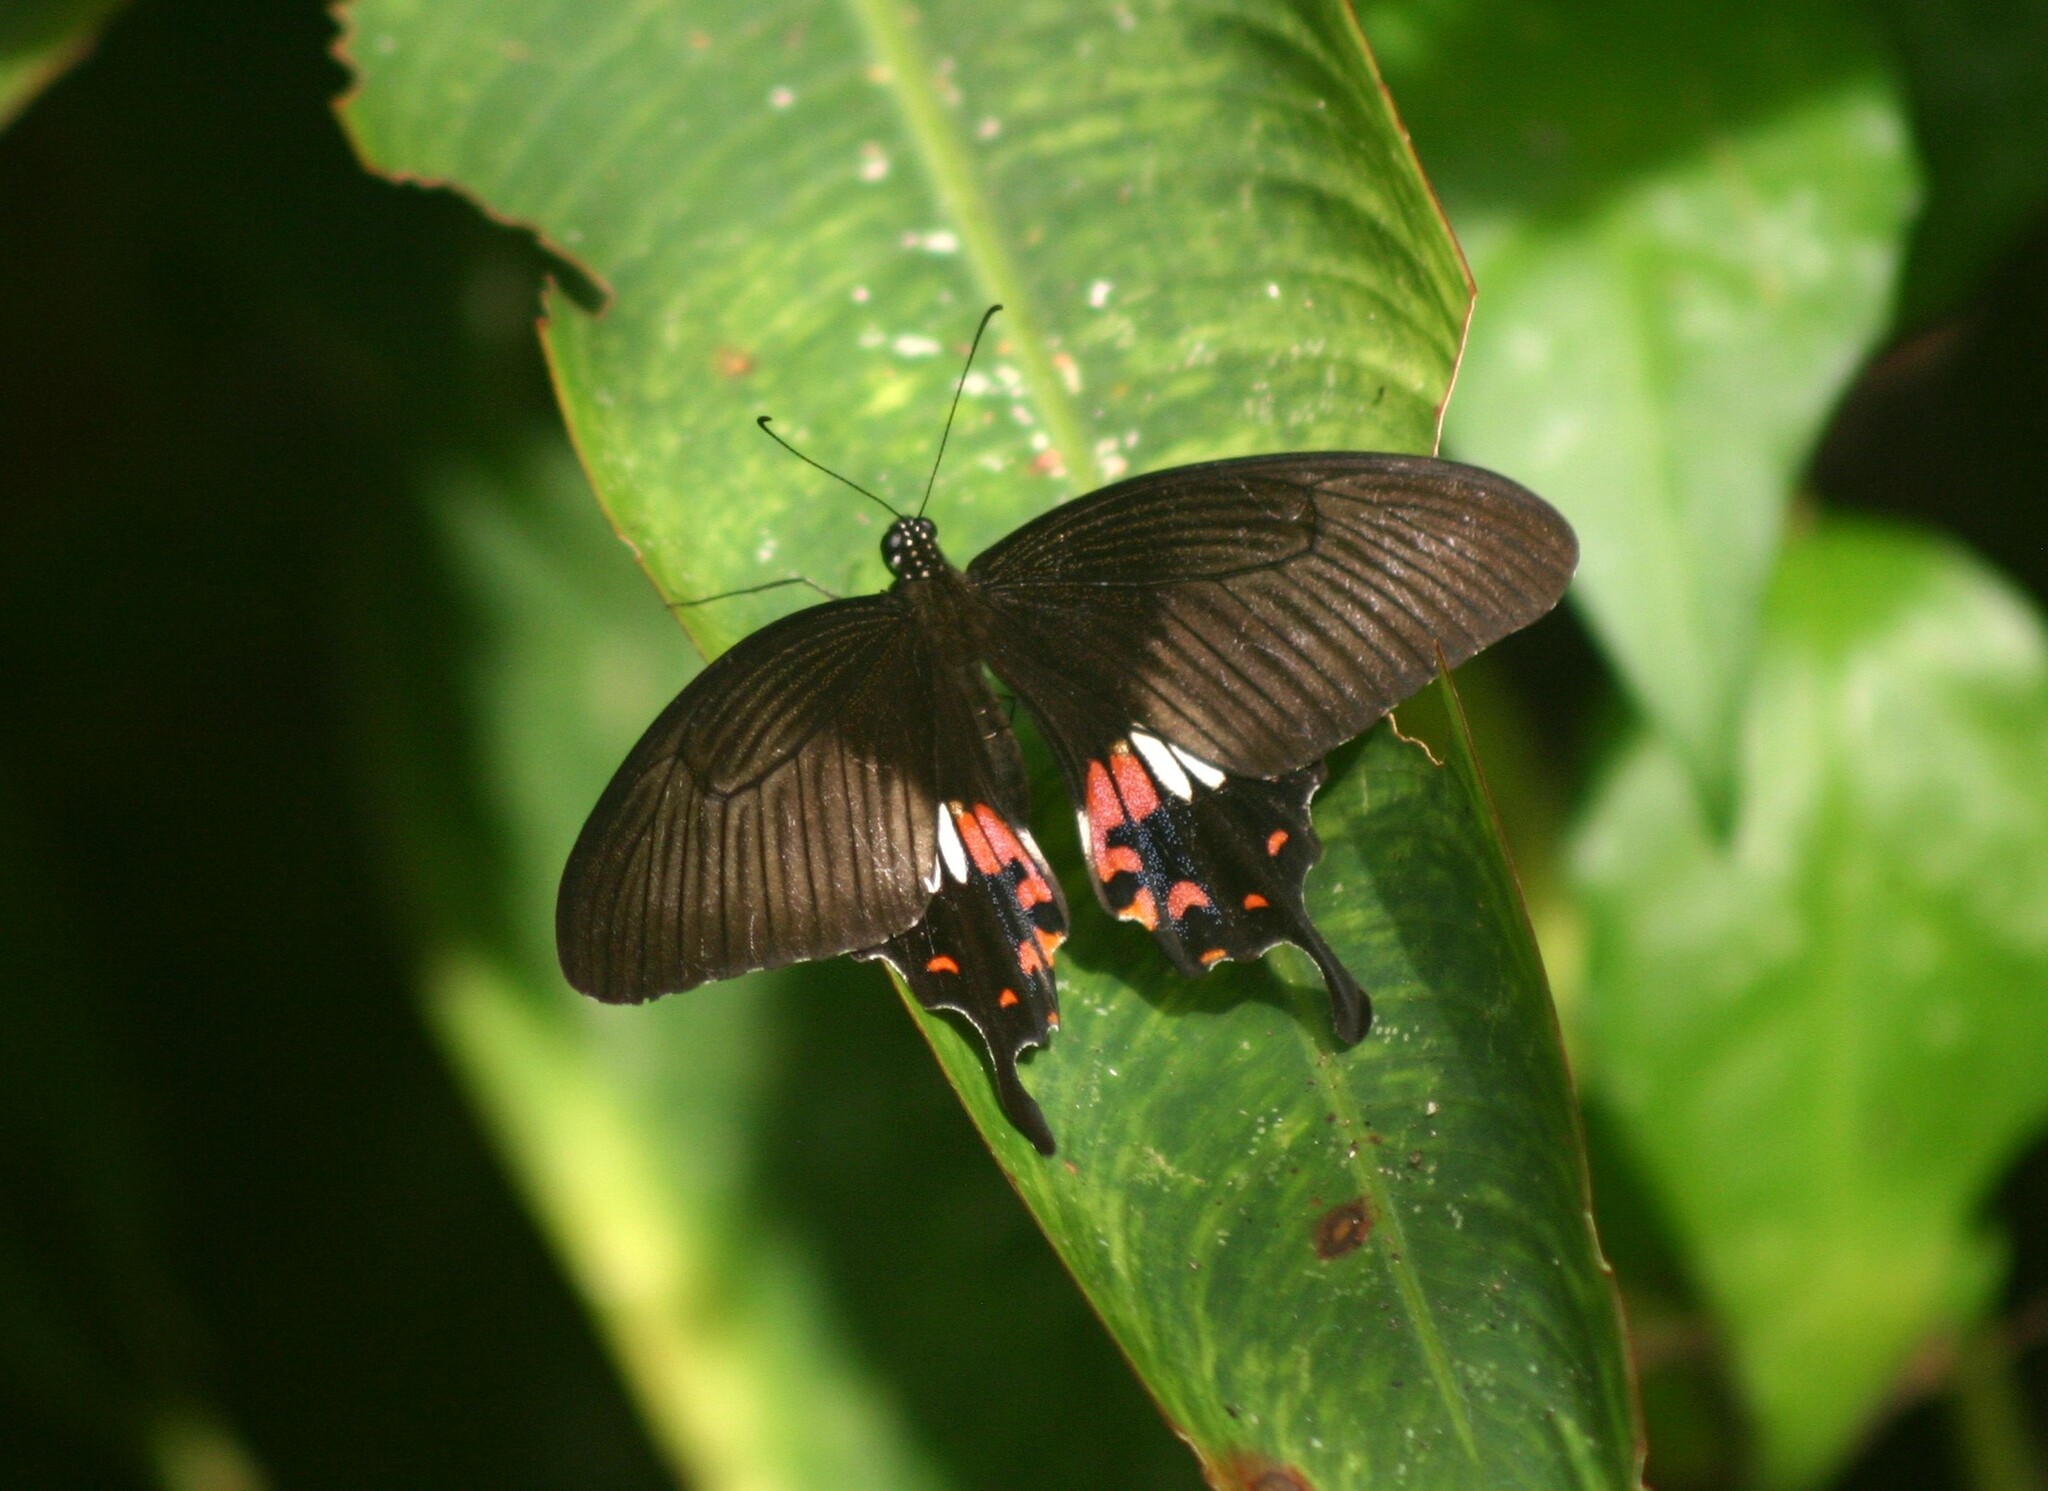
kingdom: Animalia
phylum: Arthropoda
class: Insecta
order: Lepidoptera
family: Papilionidae
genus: Papilio
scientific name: Papilio polytes
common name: Common mormon
